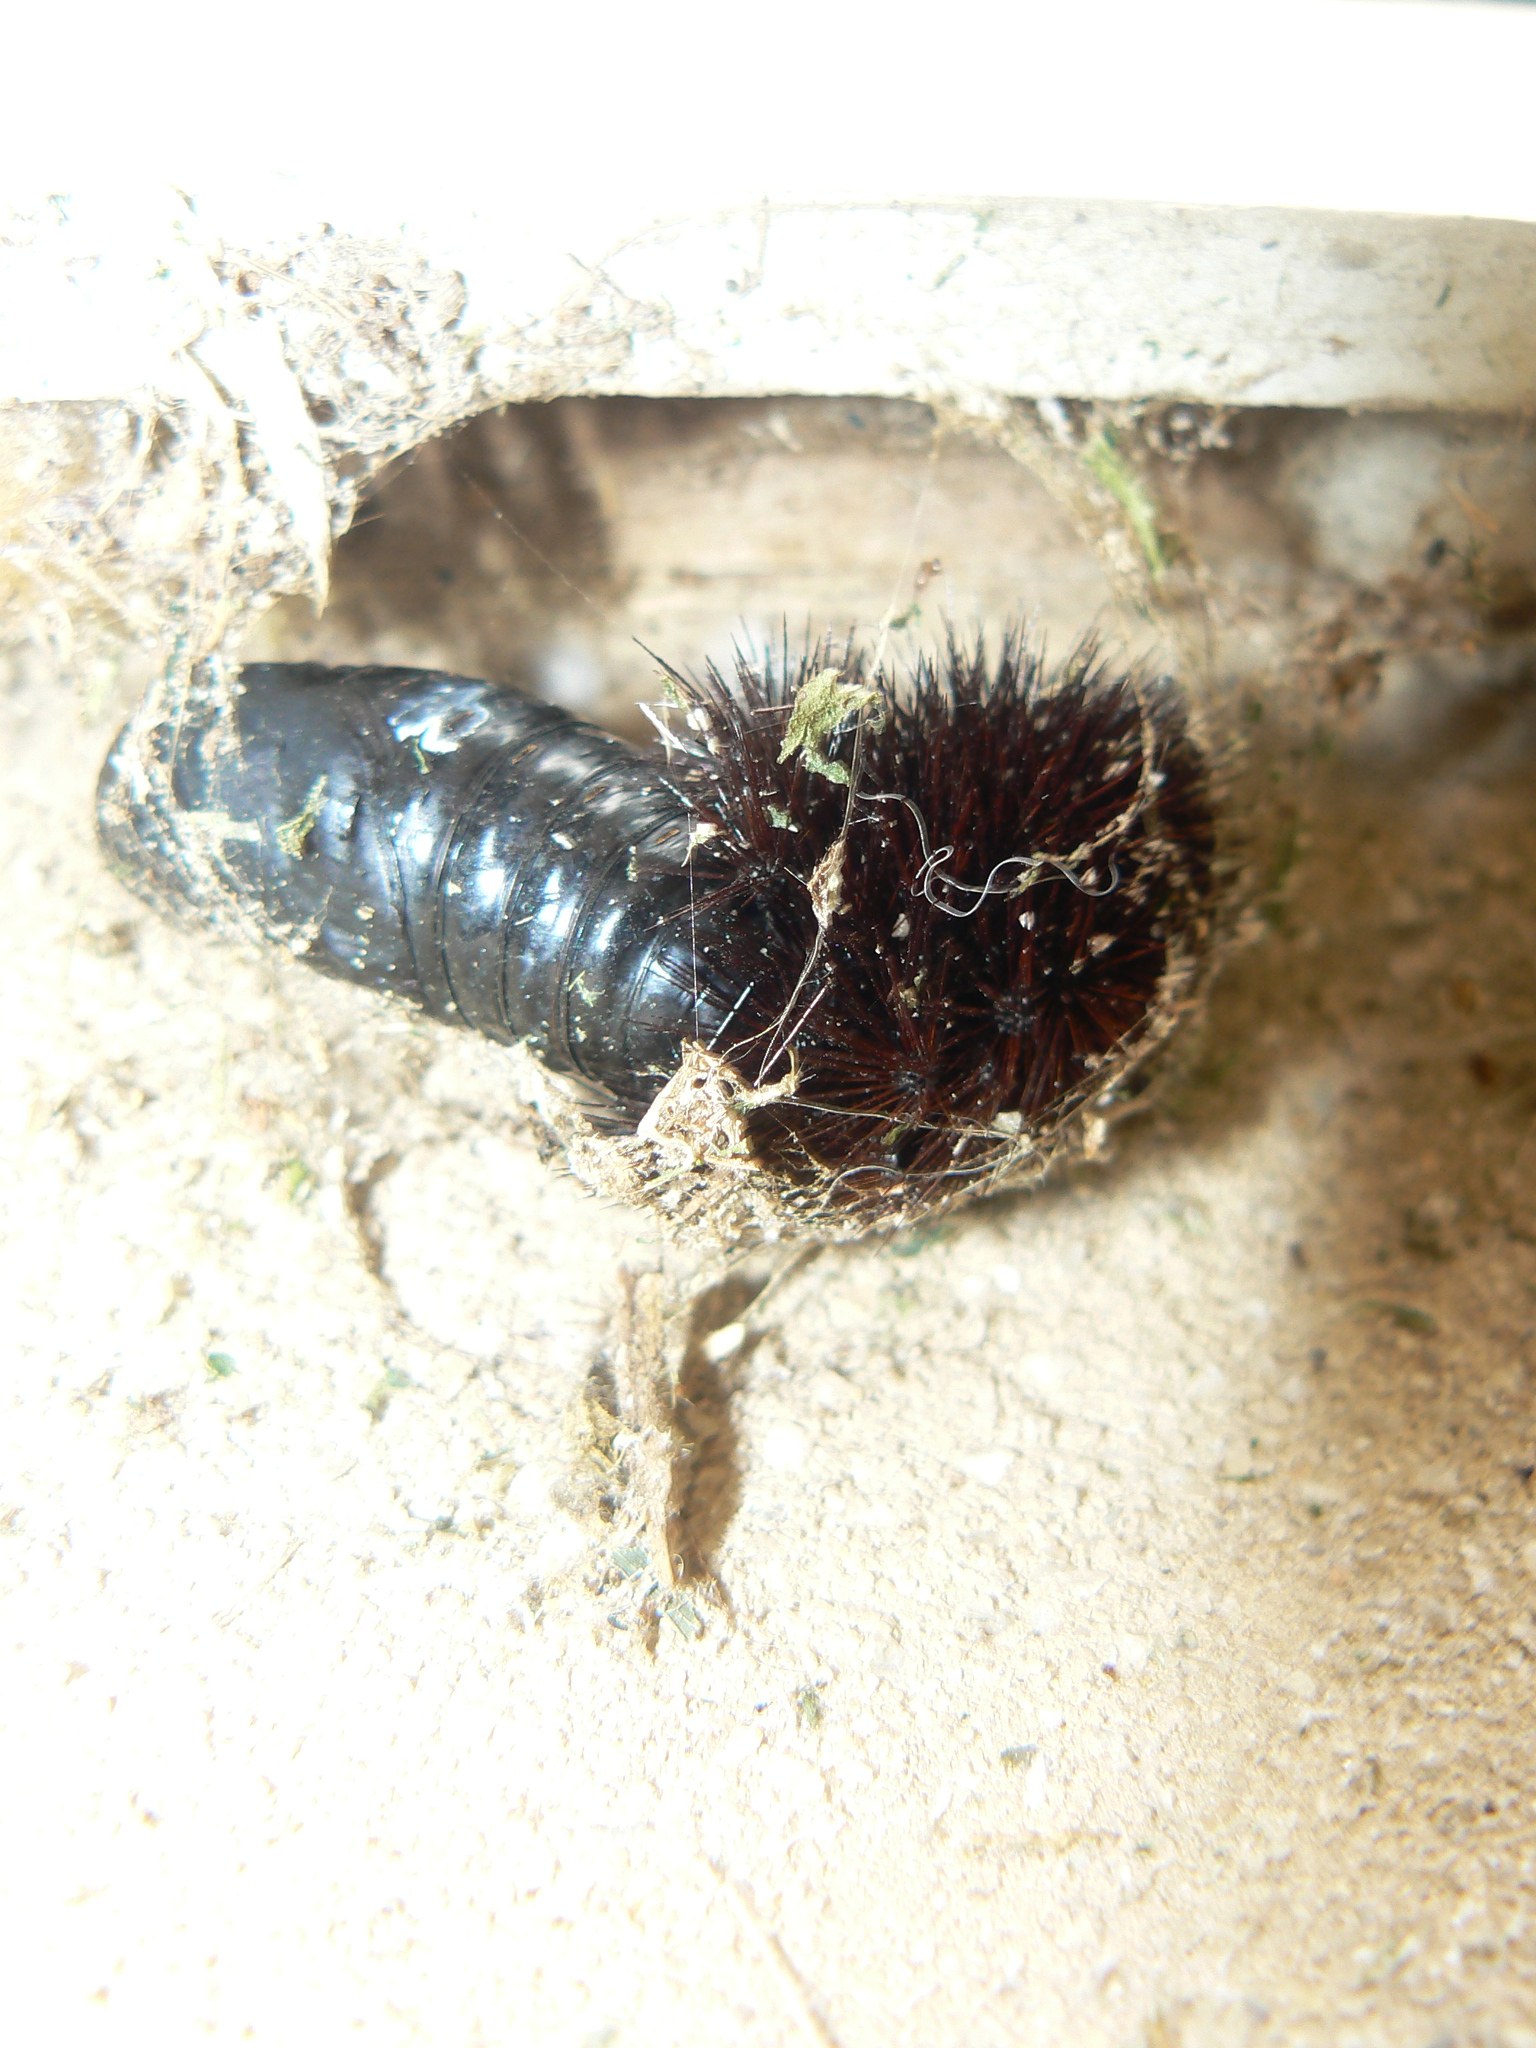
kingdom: Animalia
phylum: Arthropoda
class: Insecta
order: Lepidoptera
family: Erebidae
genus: Hypercompe
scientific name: Hypercompe scribonia
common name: Giant leopard moth
